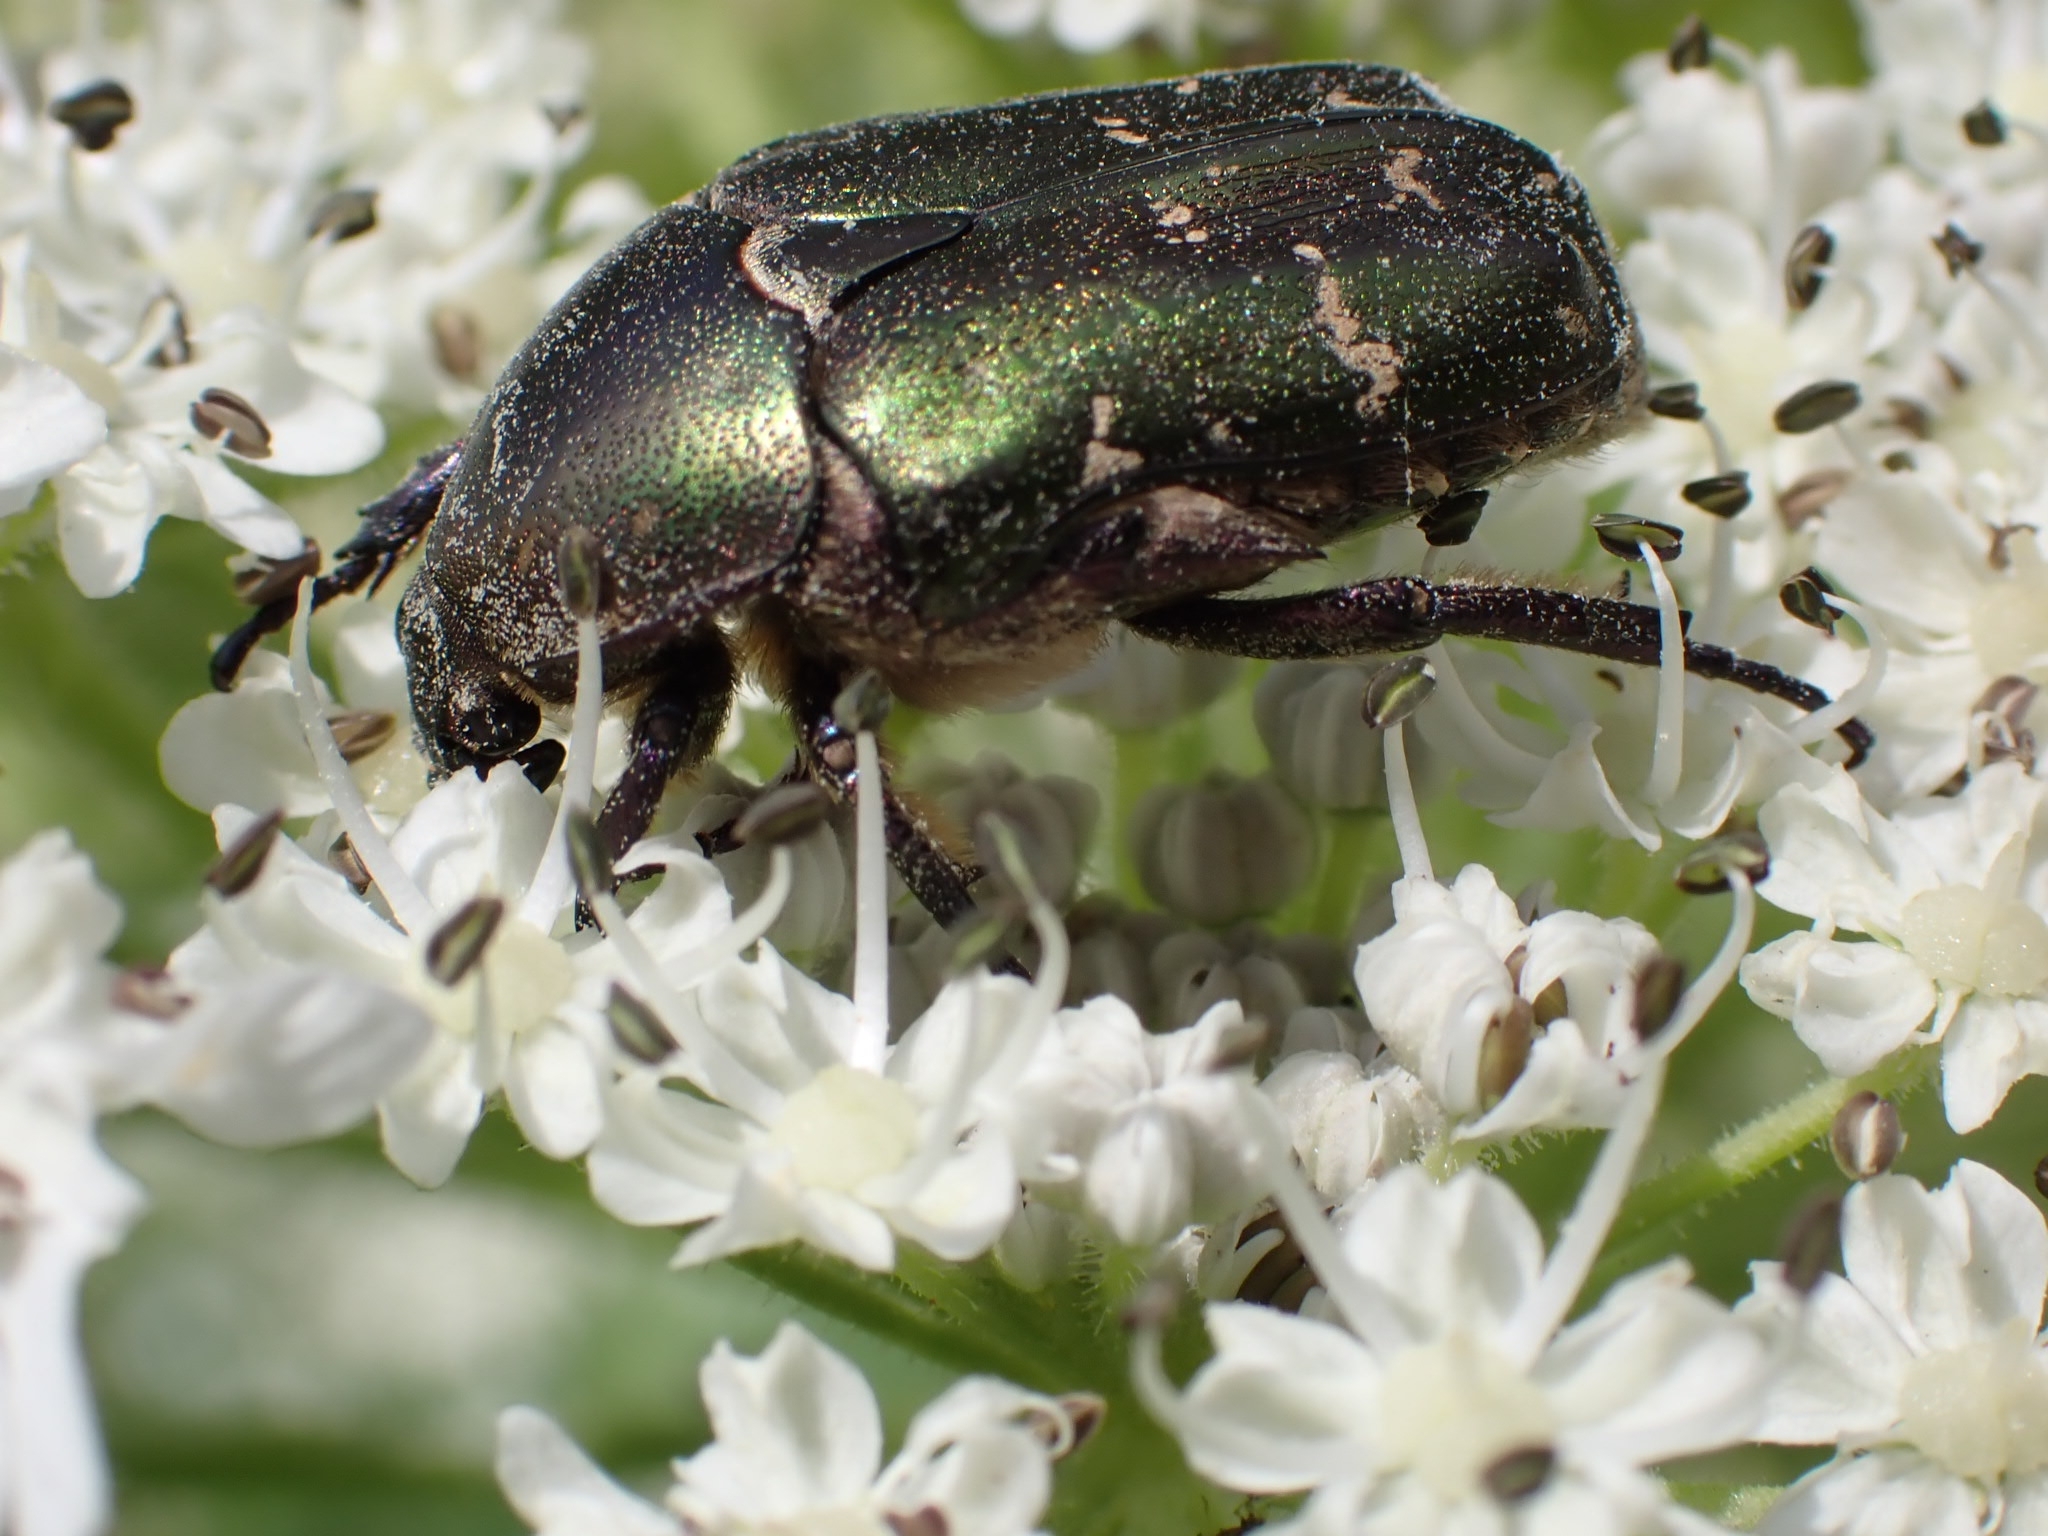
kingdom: Animalia
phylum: Arthropoda
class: Insecta
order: Coleoptera
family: Scarabaeidae
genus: Protaetia
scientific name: Protaetia cuprea
